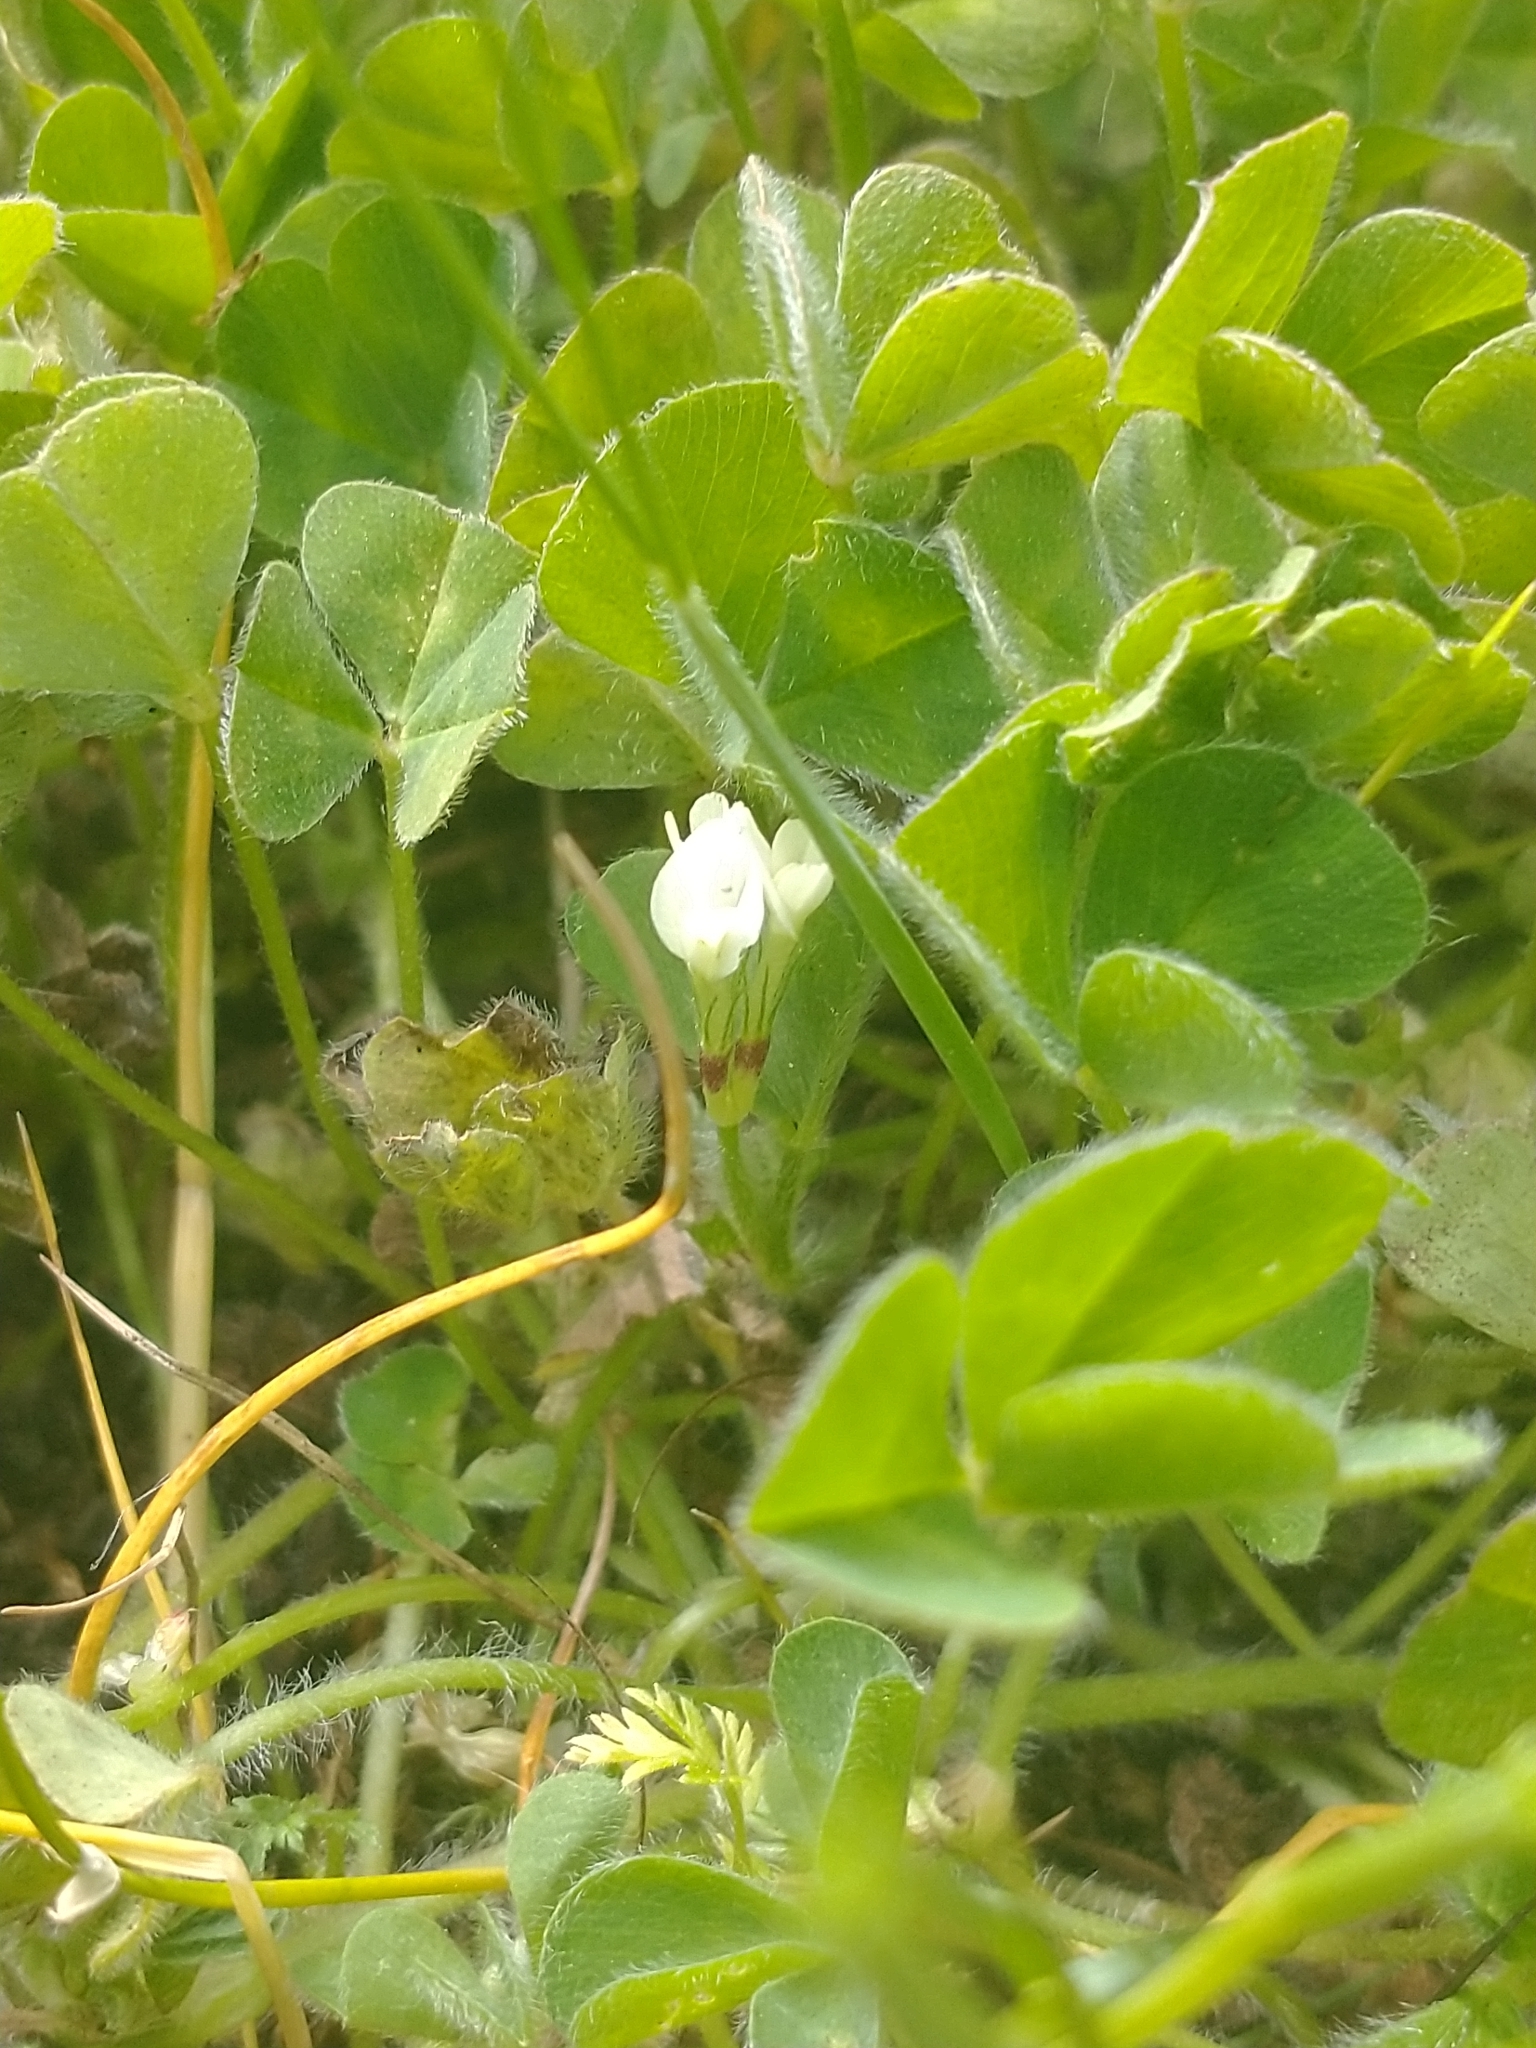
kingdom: Plantae
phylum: Tracheophyta
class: Magnoliopsida
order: Fabales
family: Fabaceae
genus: Trifolium
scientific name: Trifolium subterraneum
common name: Subterranean clover
